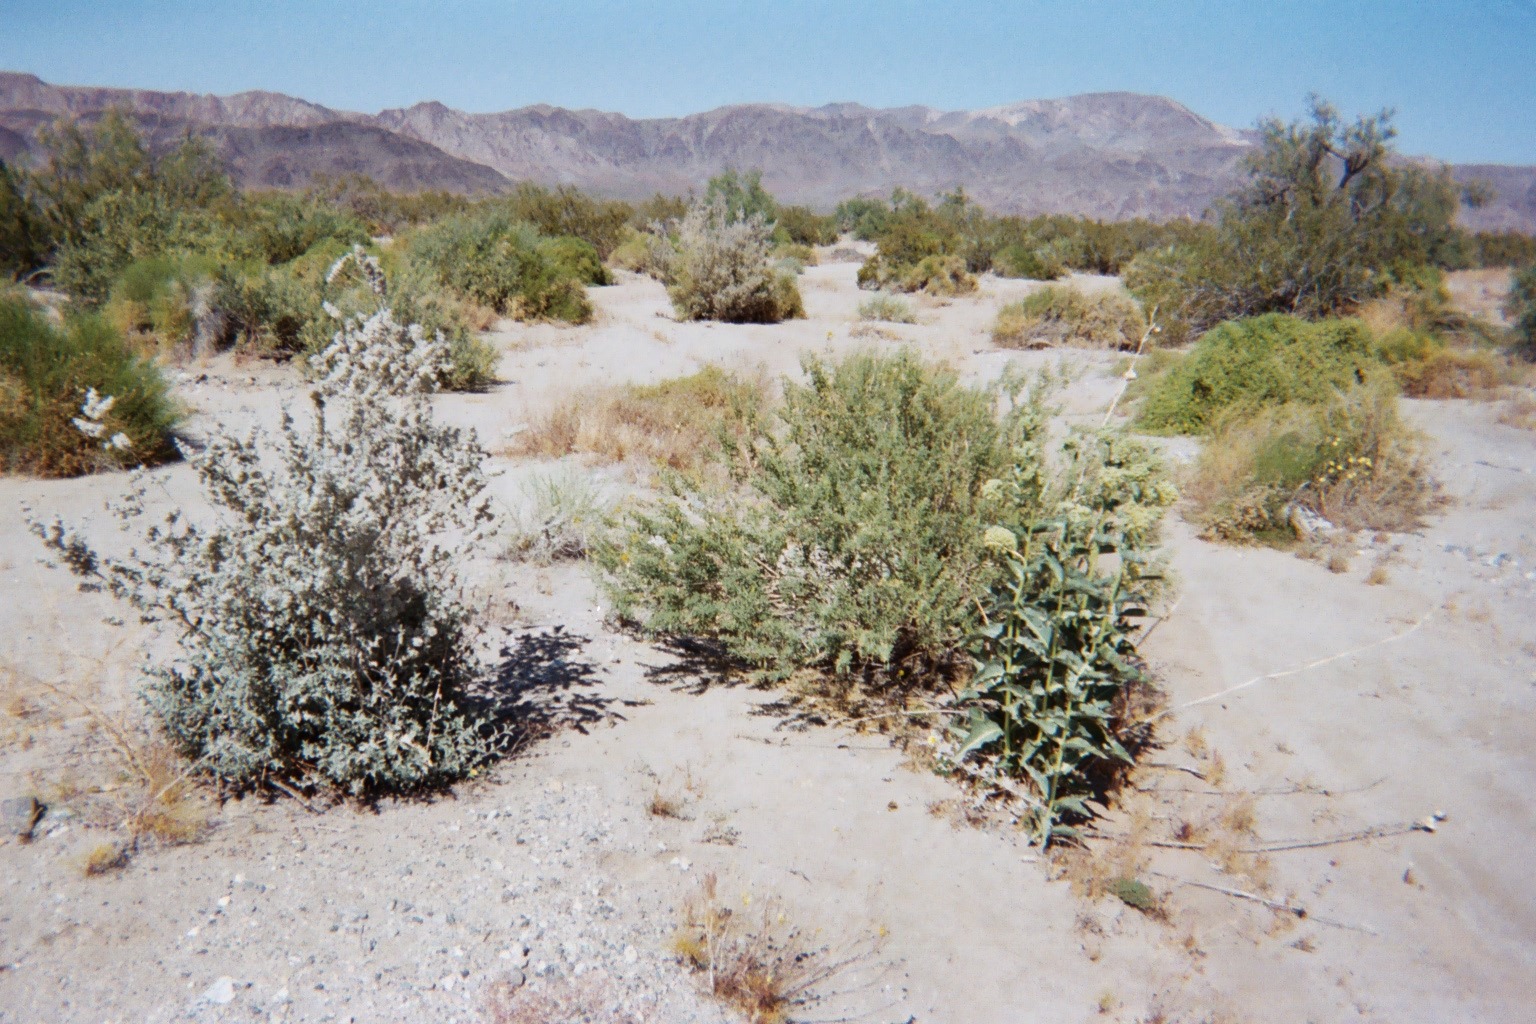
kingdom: Plantae
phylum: Tracheophyta
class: Magnoliopsida
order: Gentianales
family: Apocynaceae
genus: Asclepias
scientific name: Asclepias erosa
